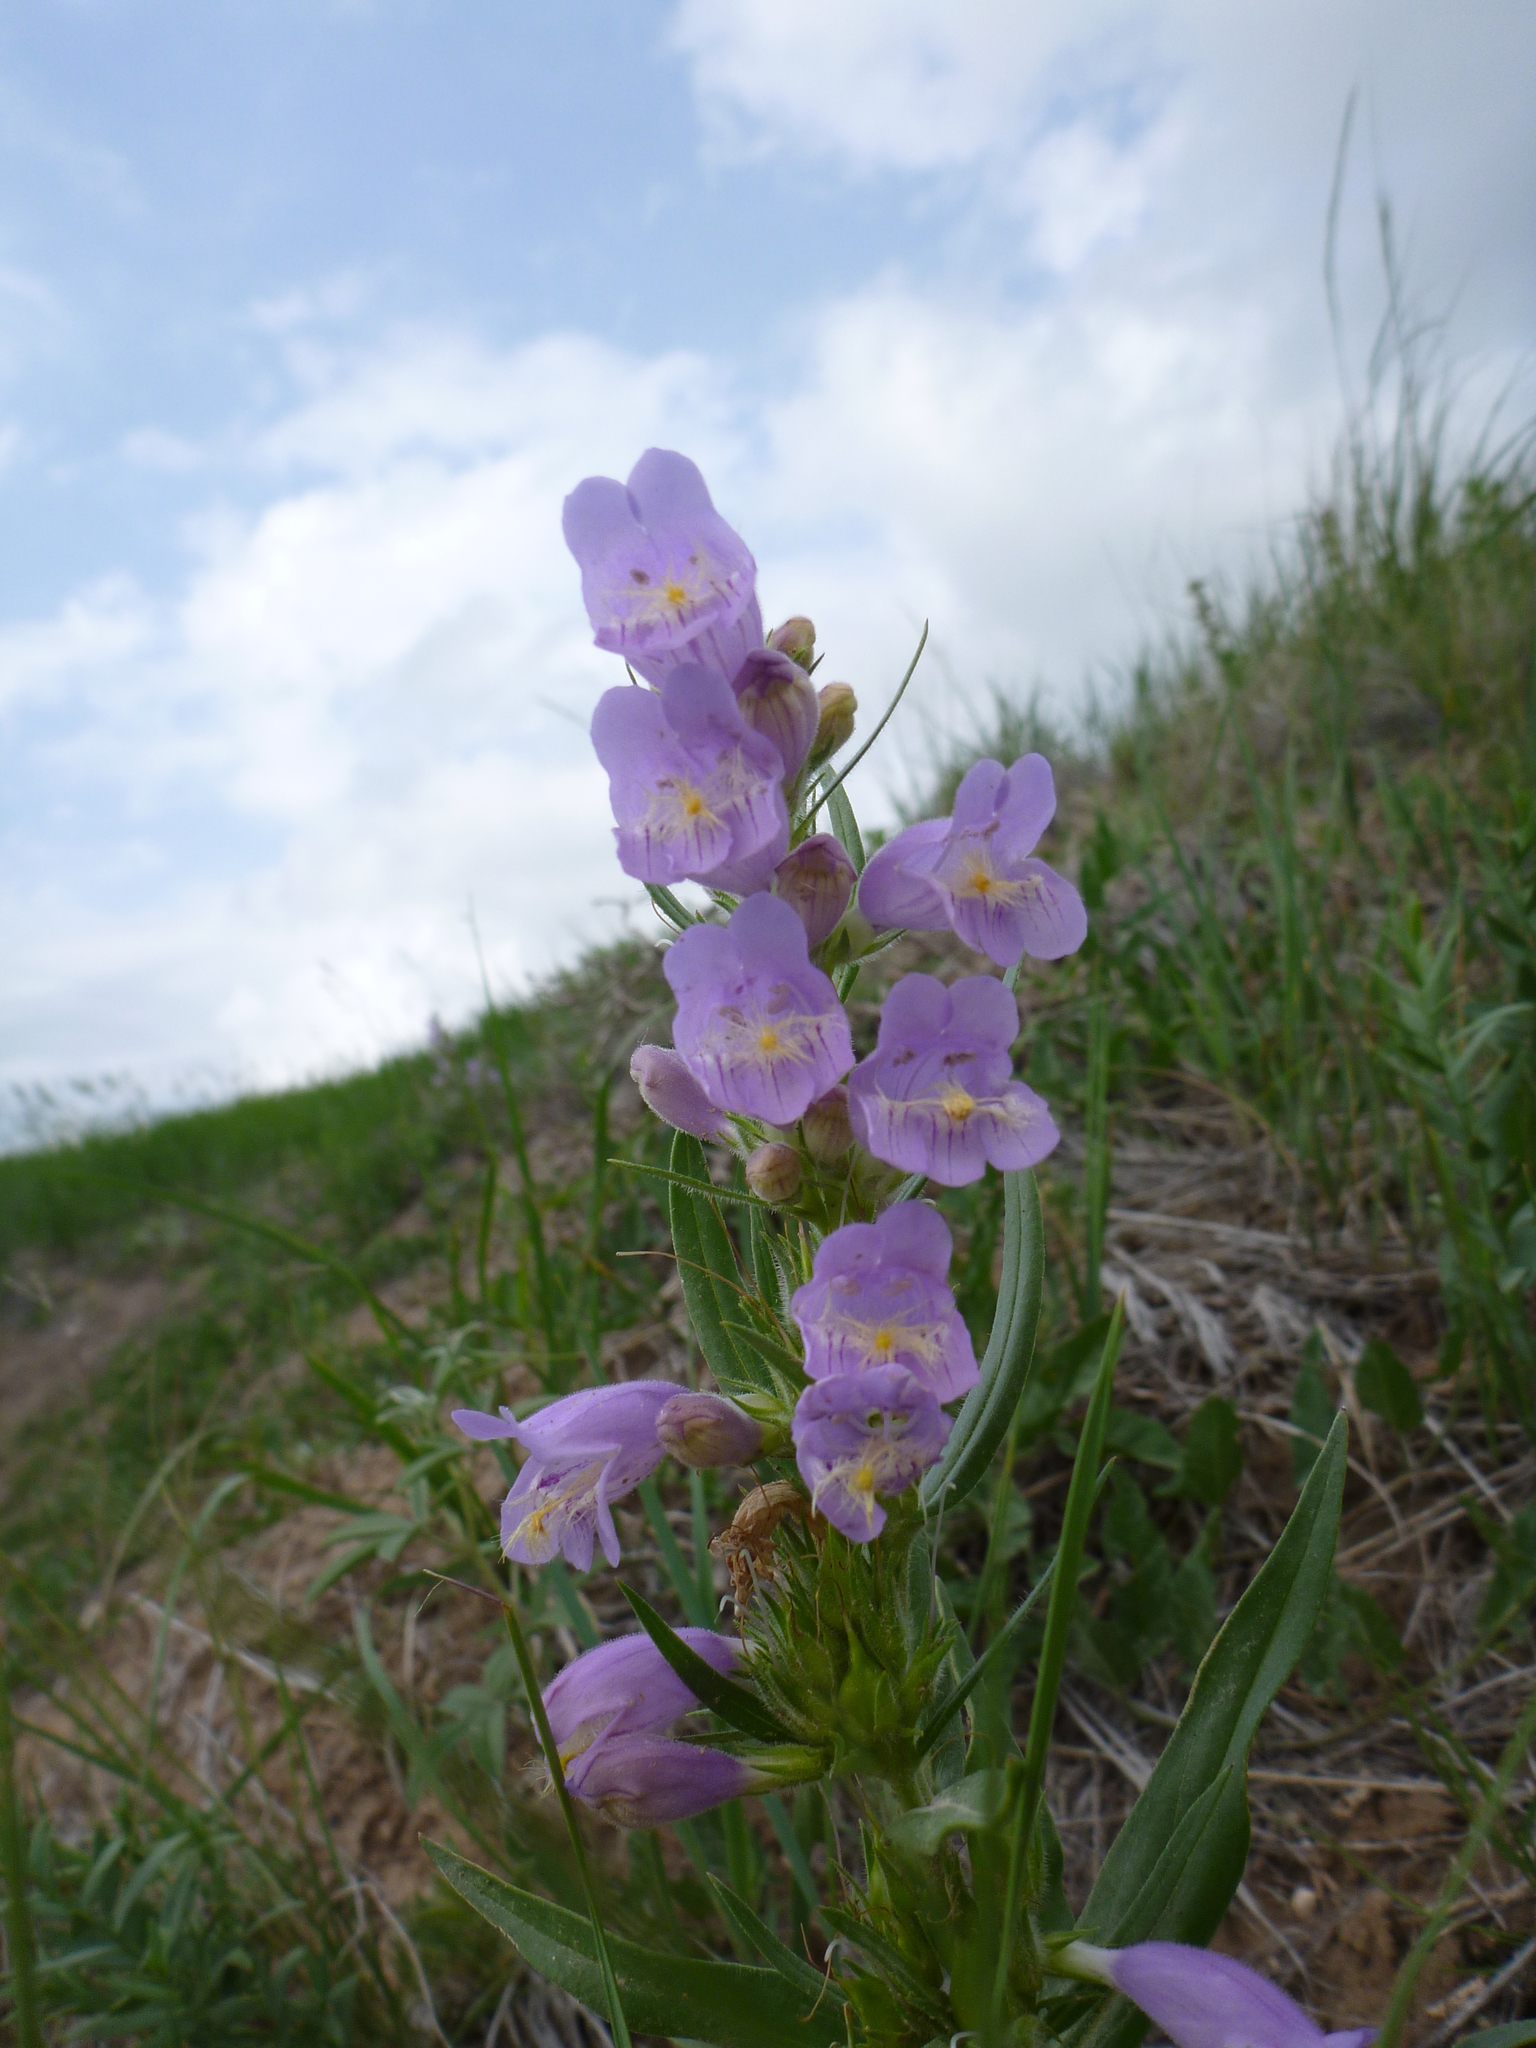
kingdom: Plantae
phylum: Tracheophyta
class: Magnoliopsida
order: Lamiales
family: Plantaginaceae
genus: Penstemon
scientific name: Penstemon eriantherus
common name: Crested beardtongue
